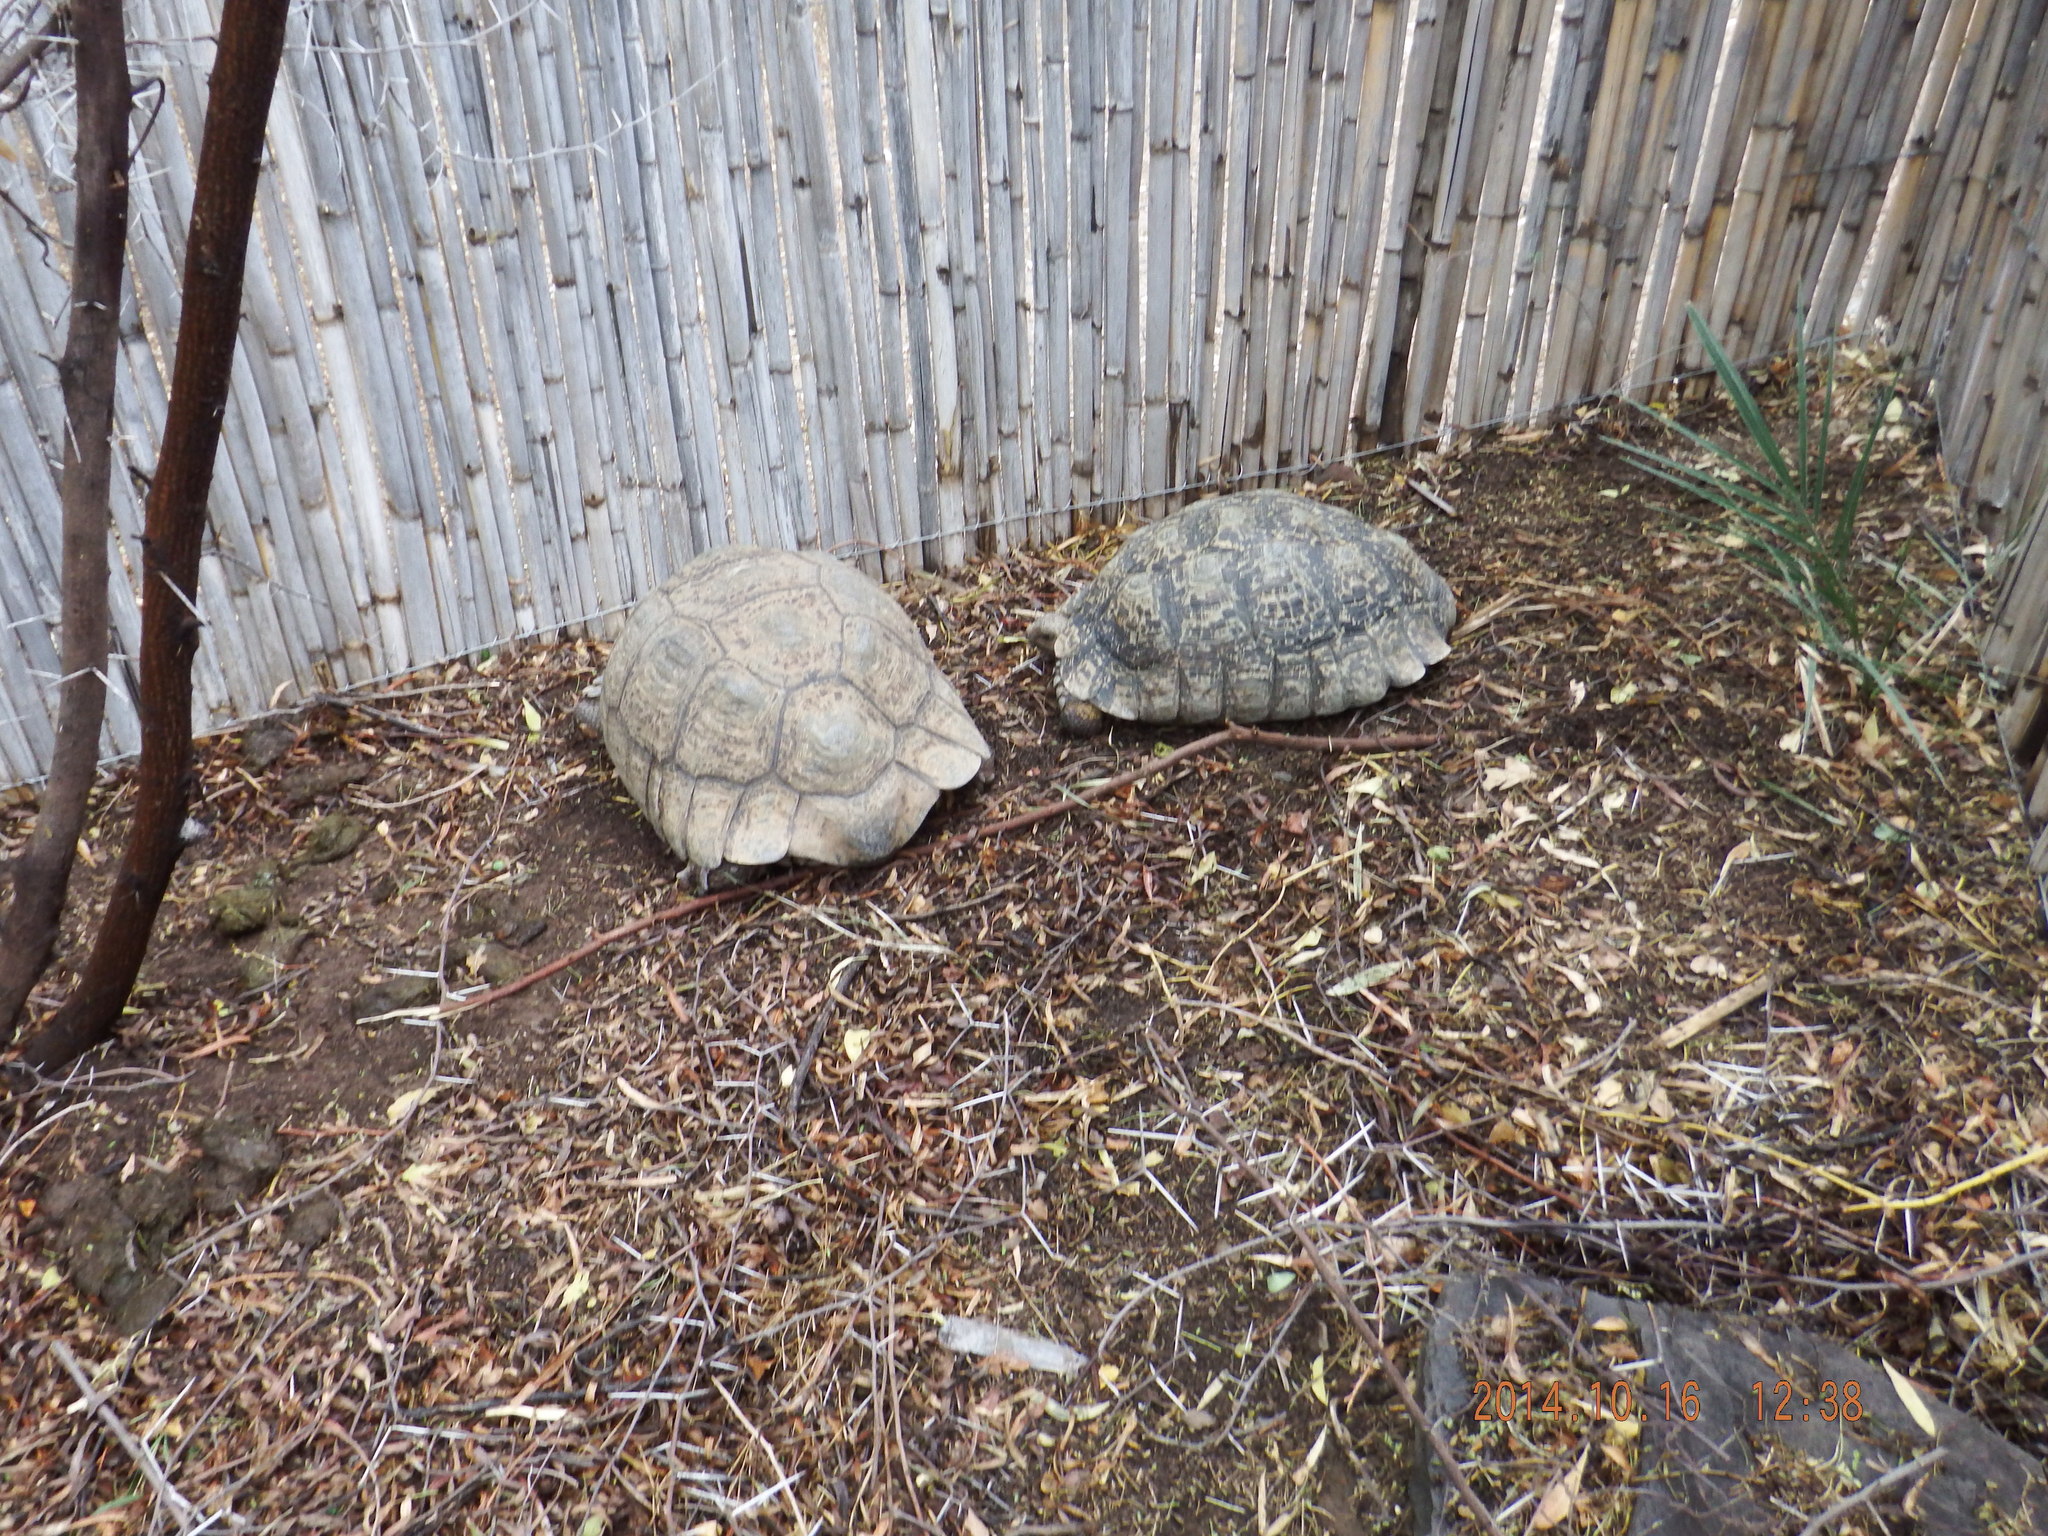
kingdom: Animalia
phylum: Chordata
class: Testudines
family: Testudinidae
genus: Stigmochelys
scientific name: Stigmochelys pardalis
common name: Leopard tortoise
